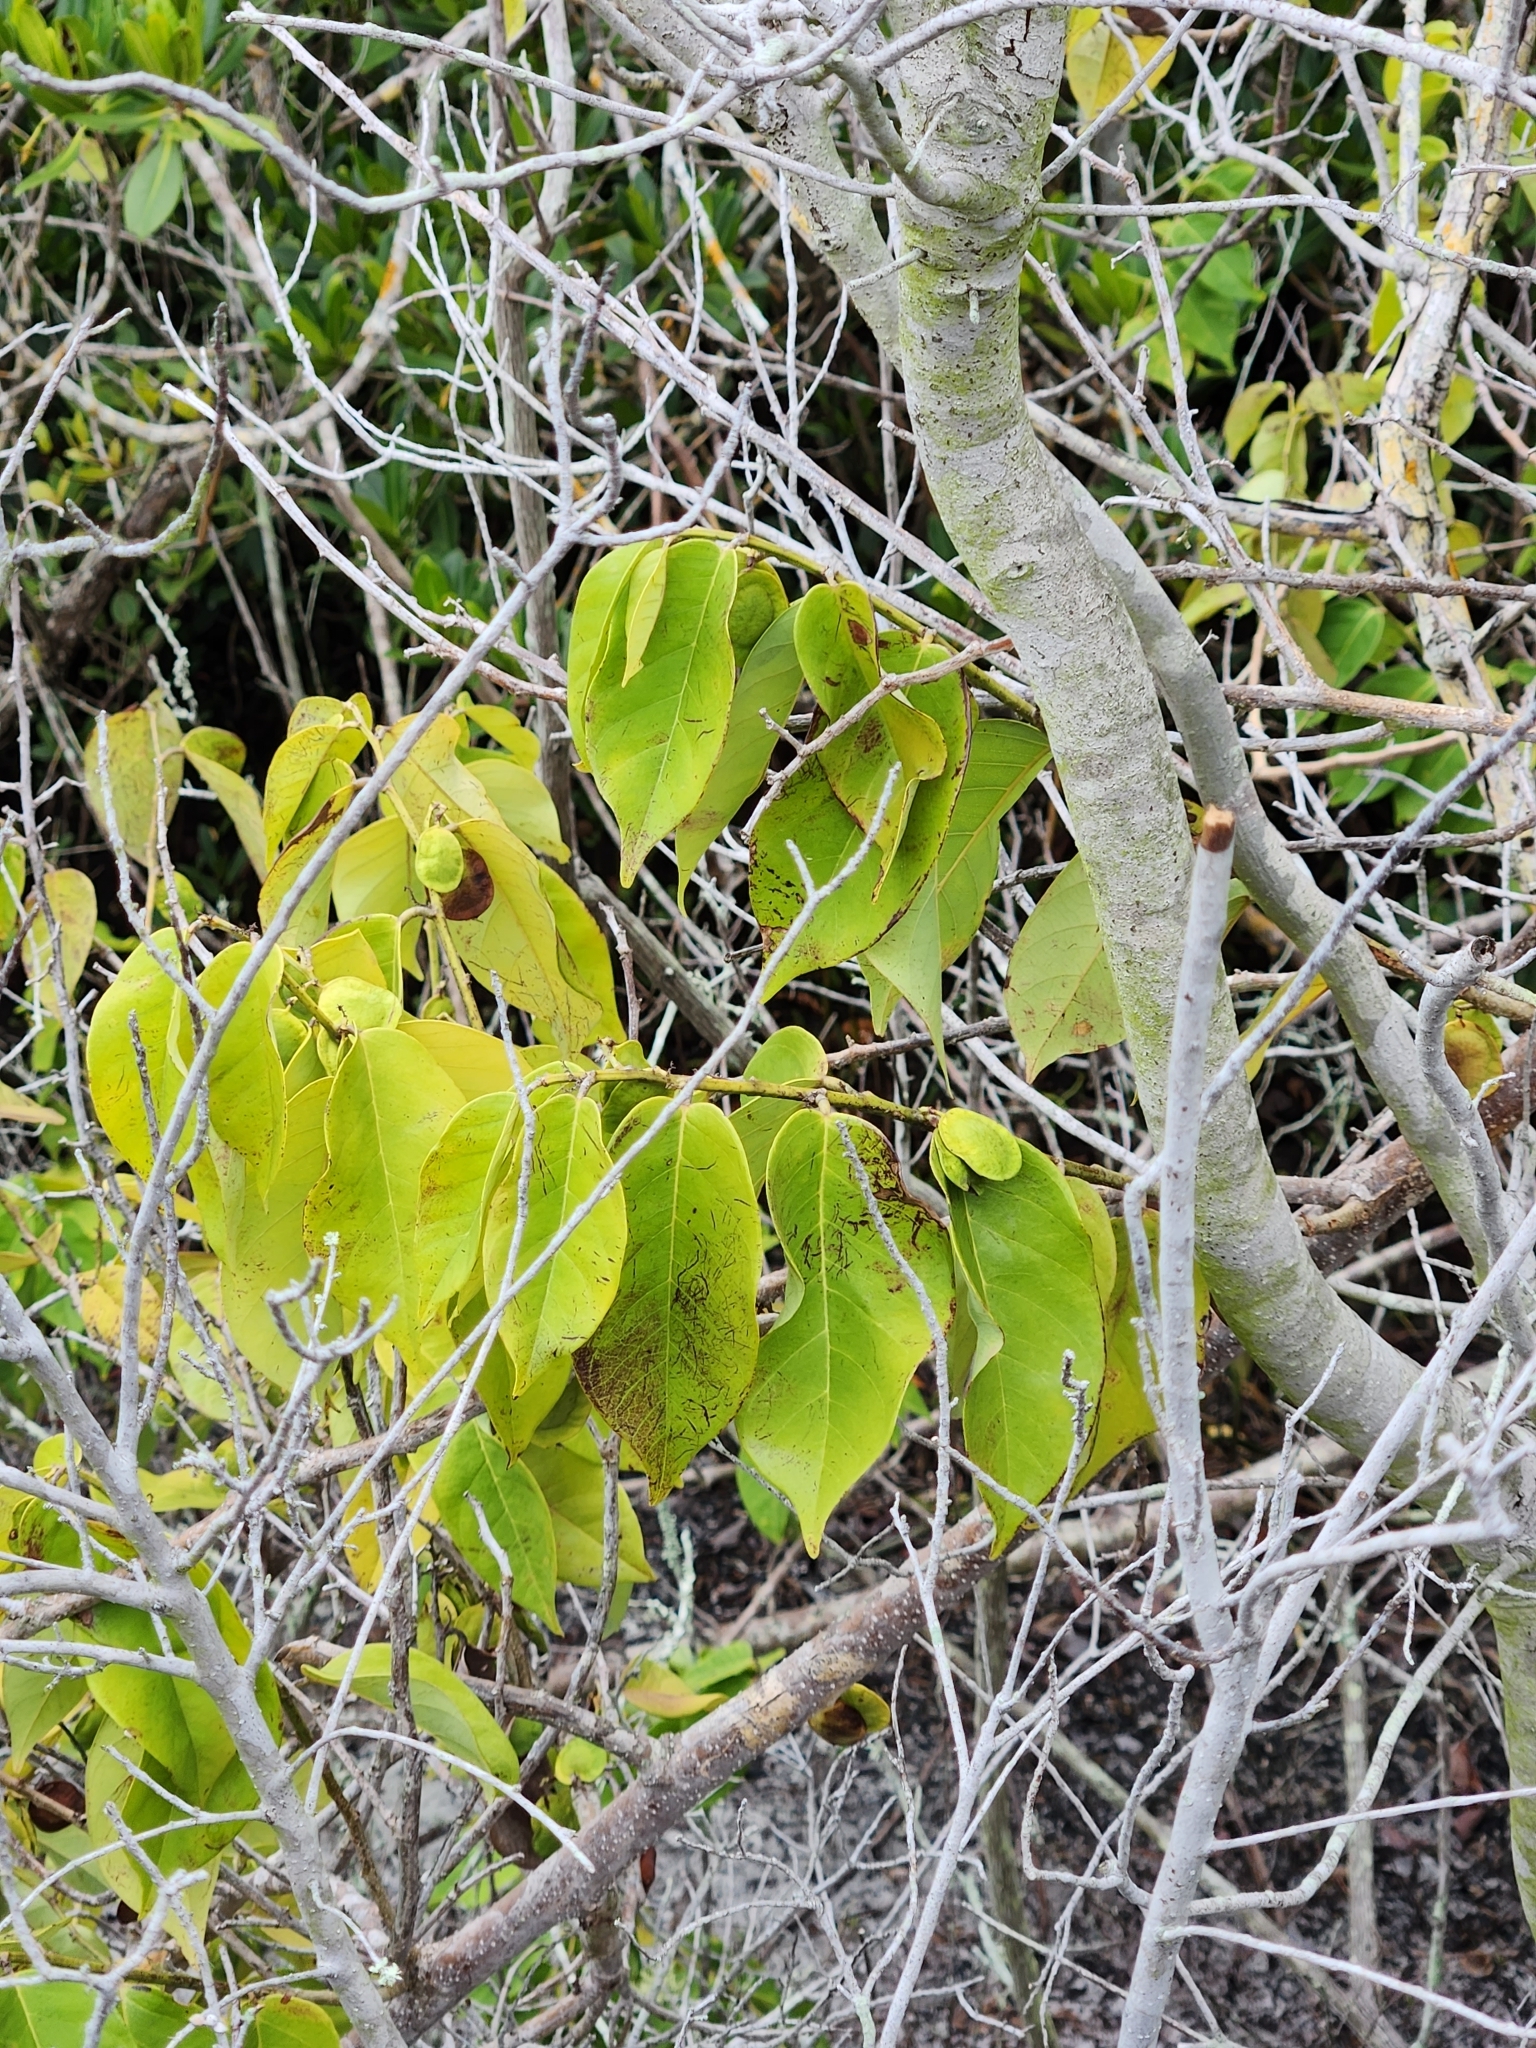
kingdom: Plantae
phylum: Tracheophyta
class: Magnoliopsida
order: Fabales
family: Fabaceae
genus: Dalbergia
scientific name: Dalbergia ecastaphyllum
